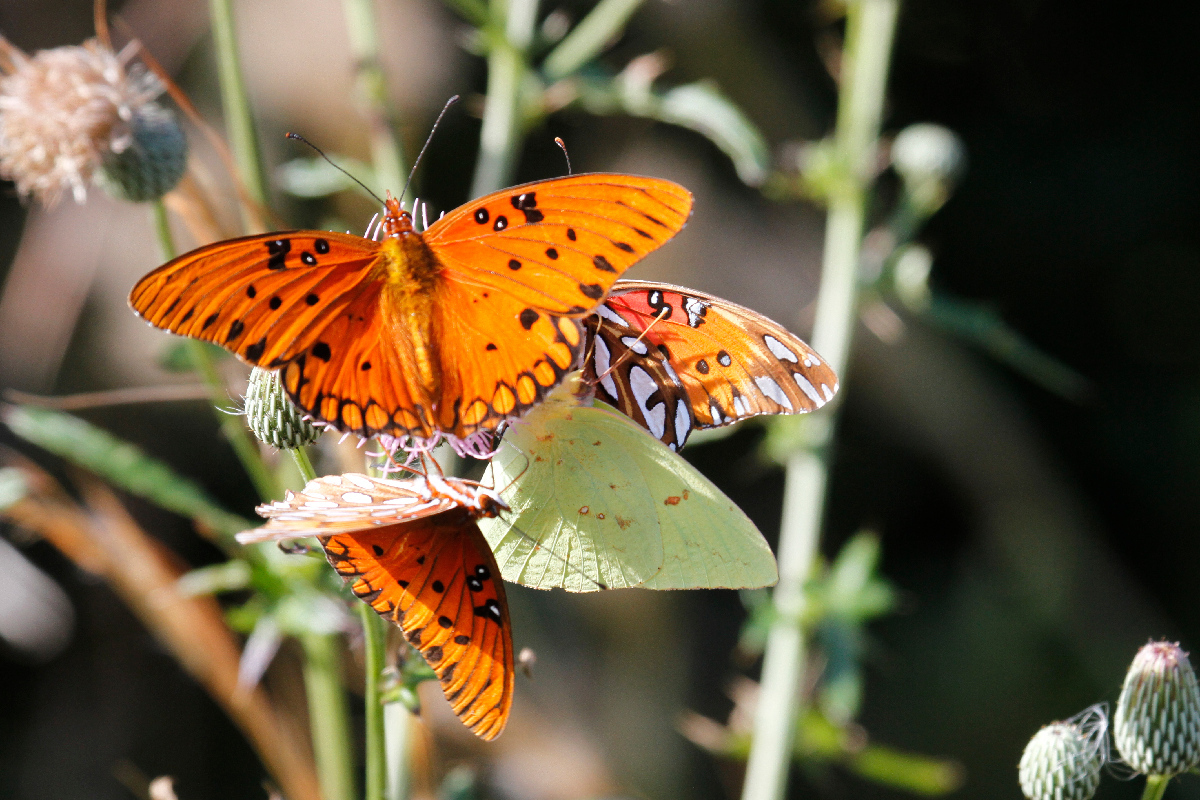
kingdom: Animalia
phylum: Arthropoda
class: Insecta
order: Lepidoptera
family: Pieridae
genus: Phoebis
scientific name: Phoebis sennae
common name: Cloudless sulphur
